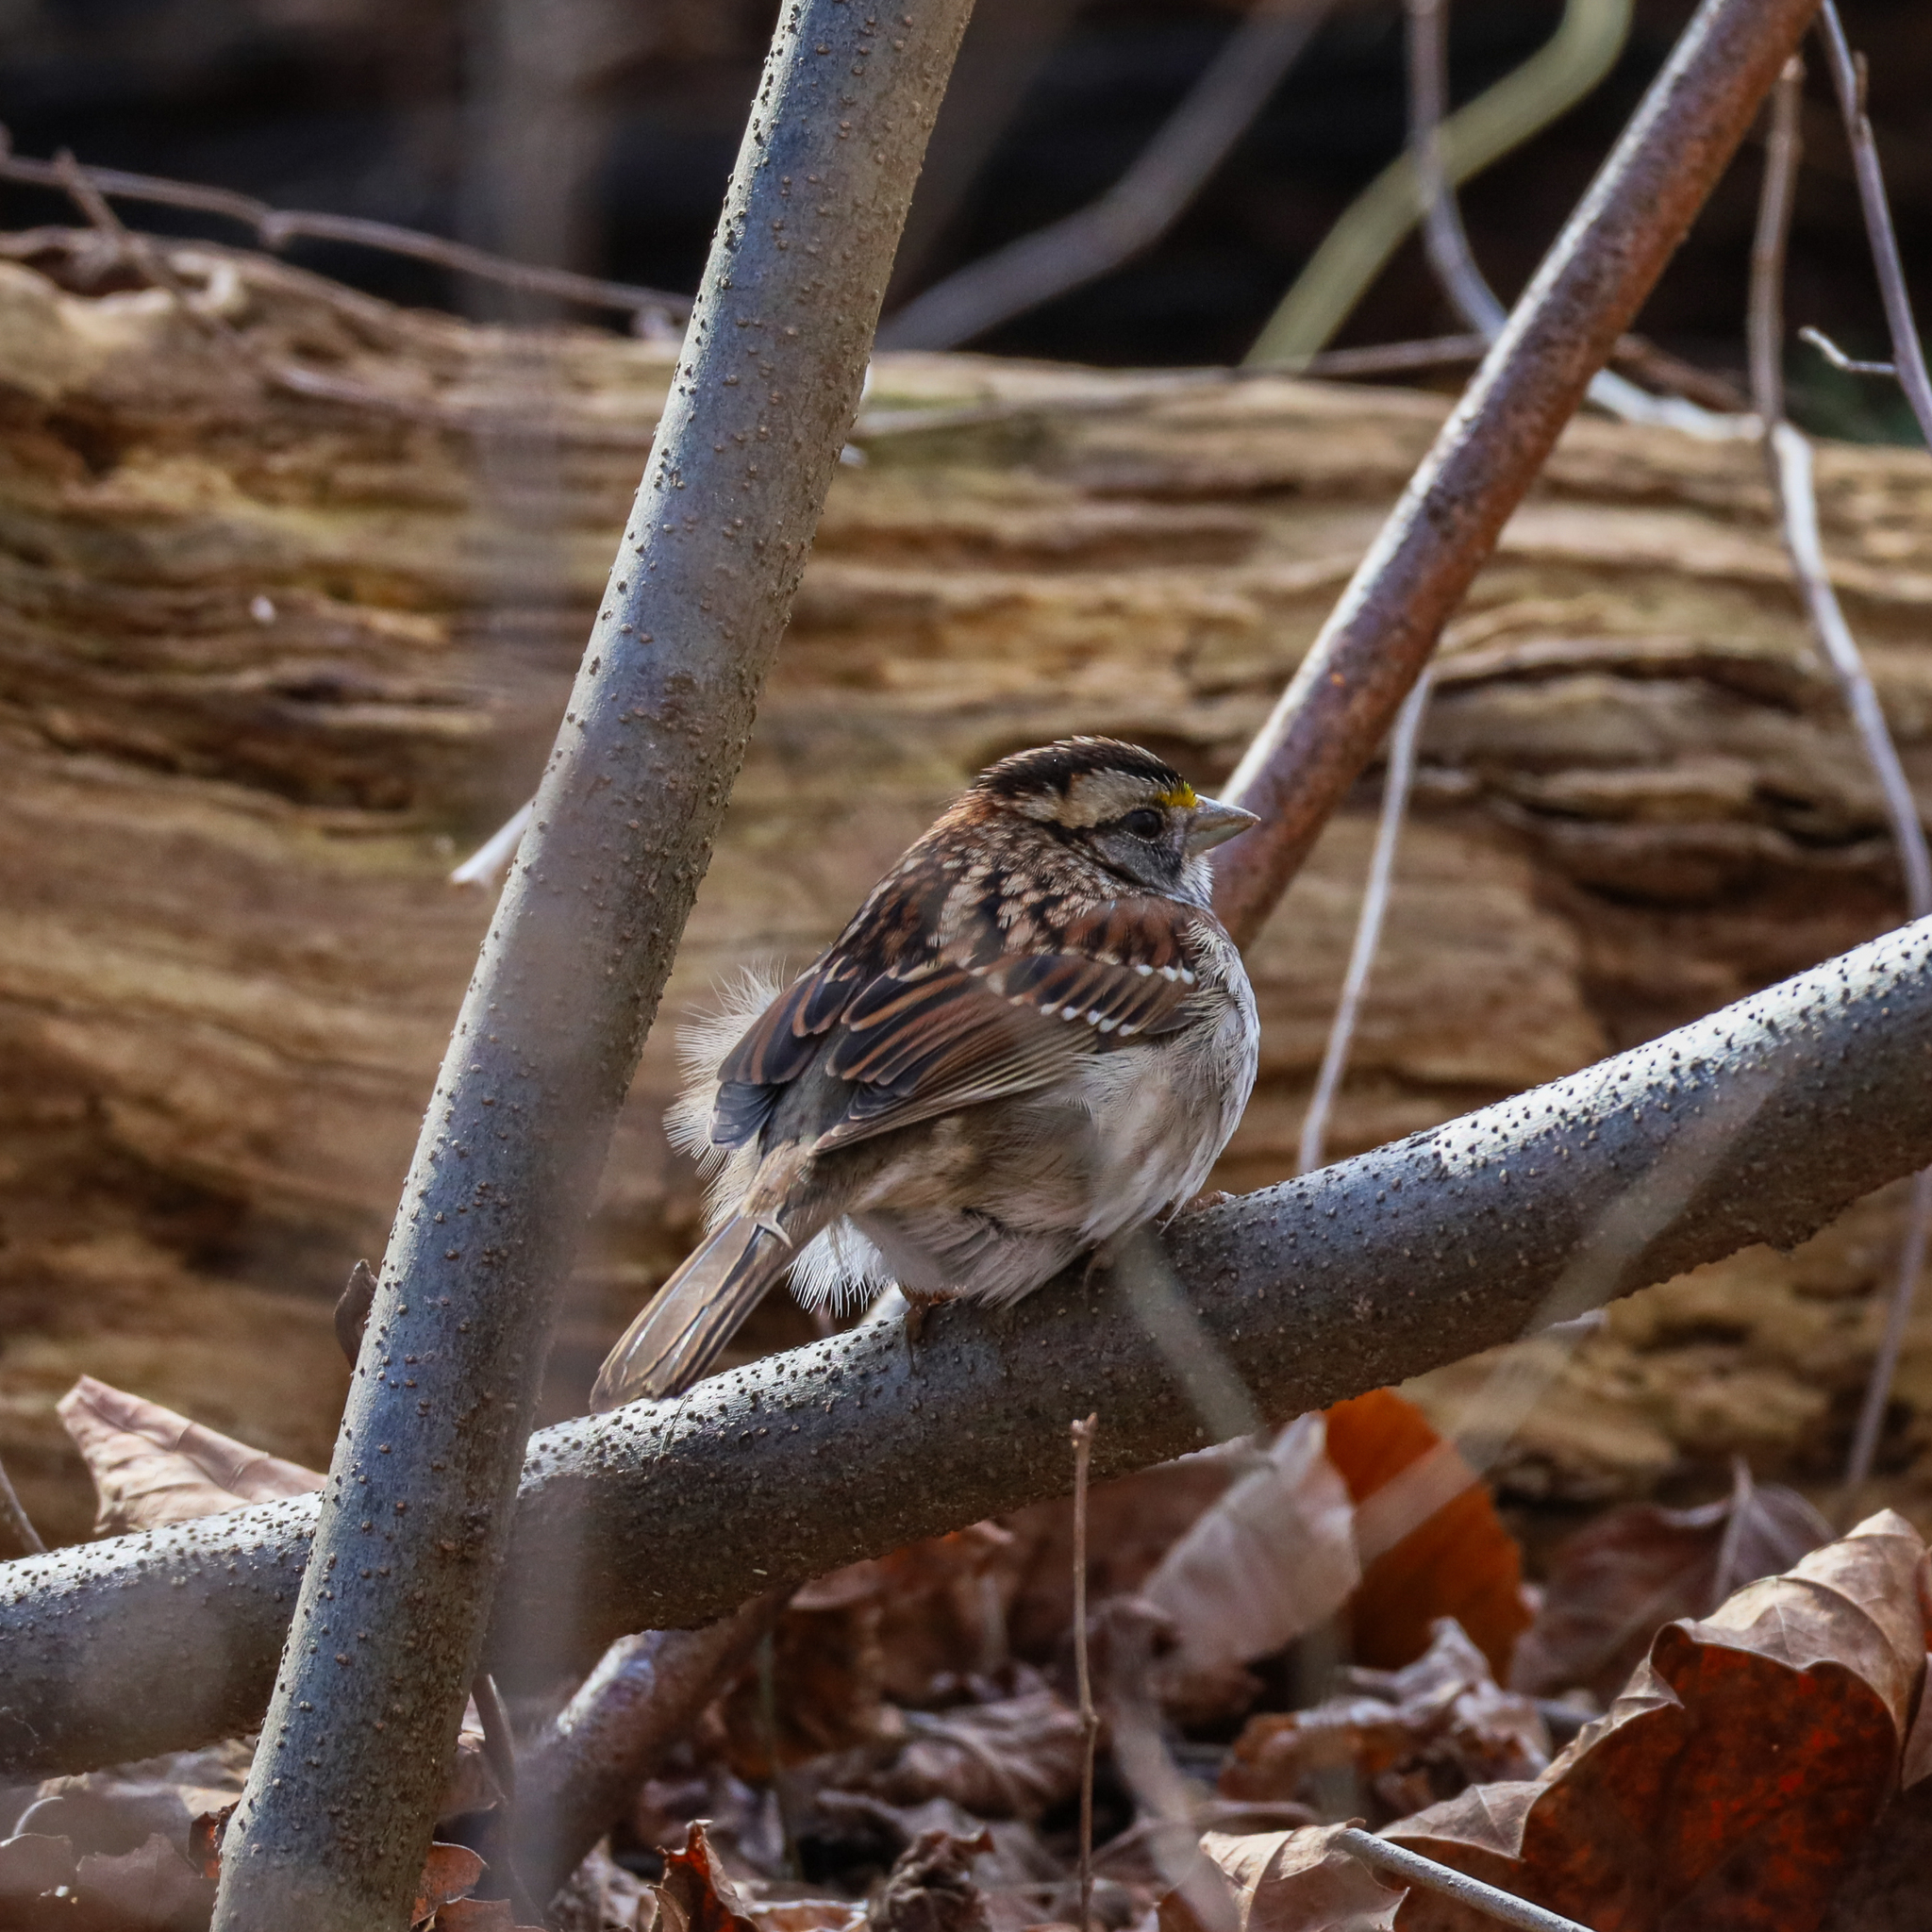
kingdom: Animalia
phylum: Chordata
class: Aves
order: Passeriformes
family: Passerellidae
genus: Zonotrichia
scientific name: Zonotrichia albicollis
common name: White-throated sparrow
